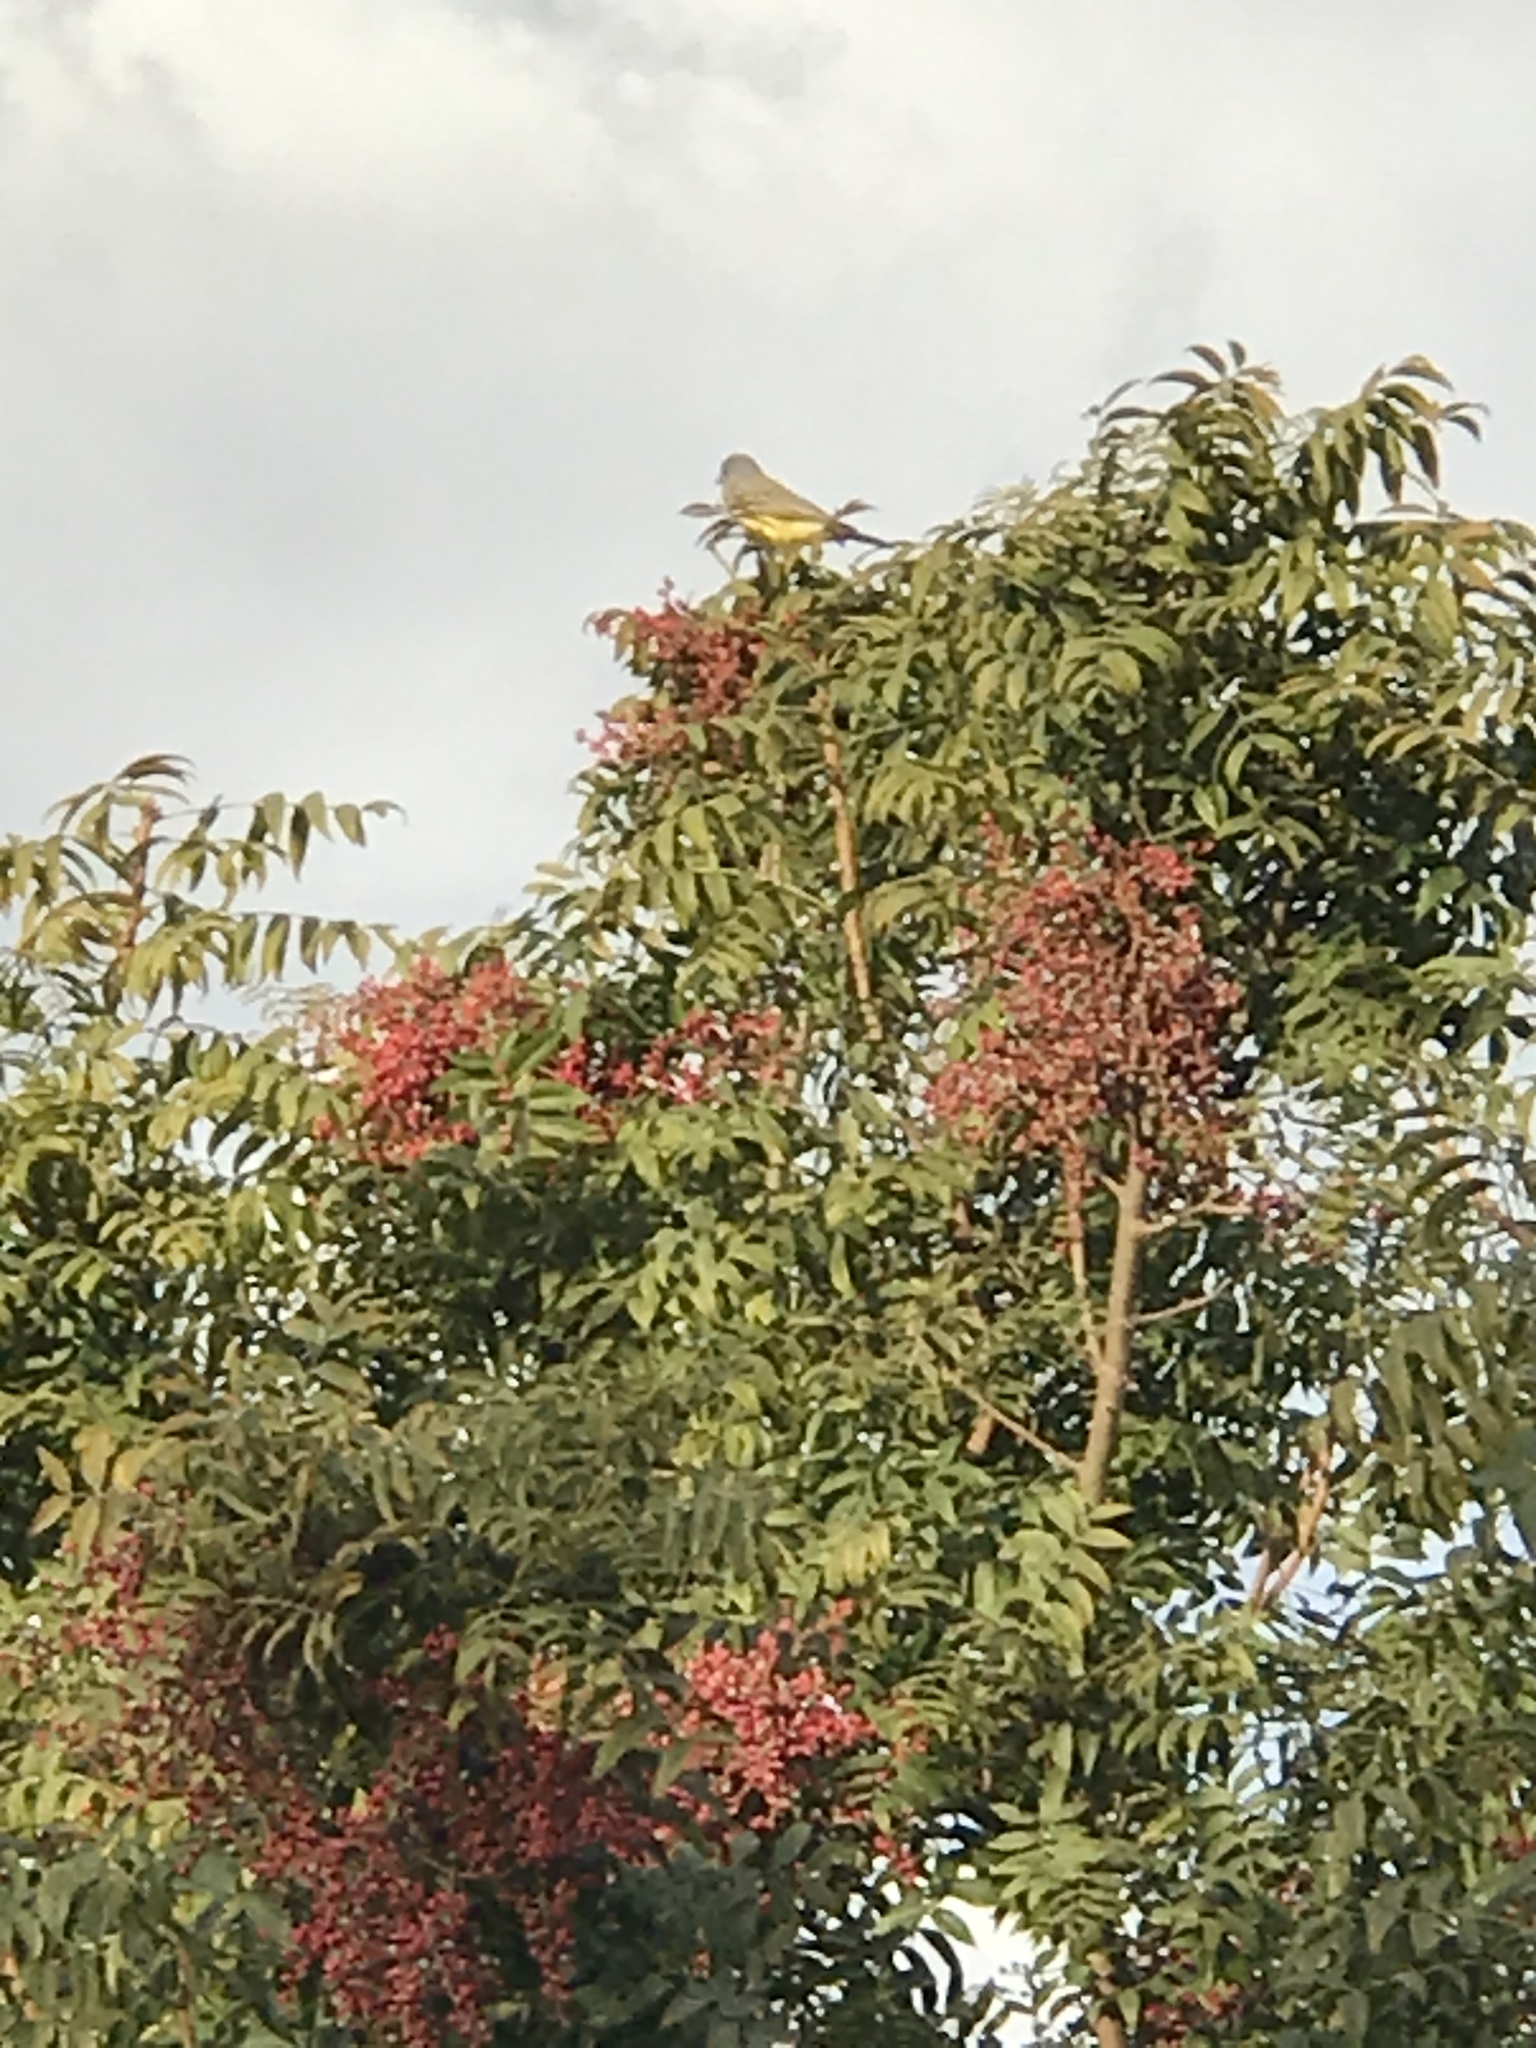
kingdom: Animalia
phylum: Chordata
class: Aves
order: Passeriformes
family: Tyrannidae
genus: Tyrannus
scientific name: Tyrannus vociferans
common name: Cassin's kingbird
